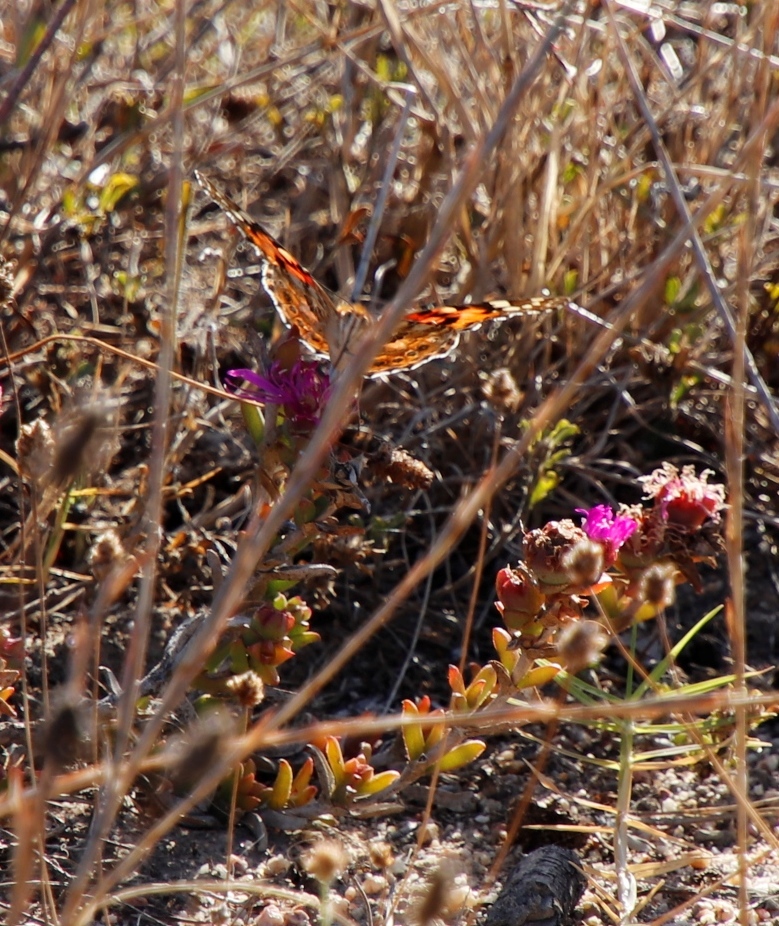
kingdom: Animalia
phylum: Arthropoda
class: Insecta
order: Lepidoptera
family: Nymphalidae
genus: Vanessa
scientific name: Vanessa cardui
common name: Painted lady
